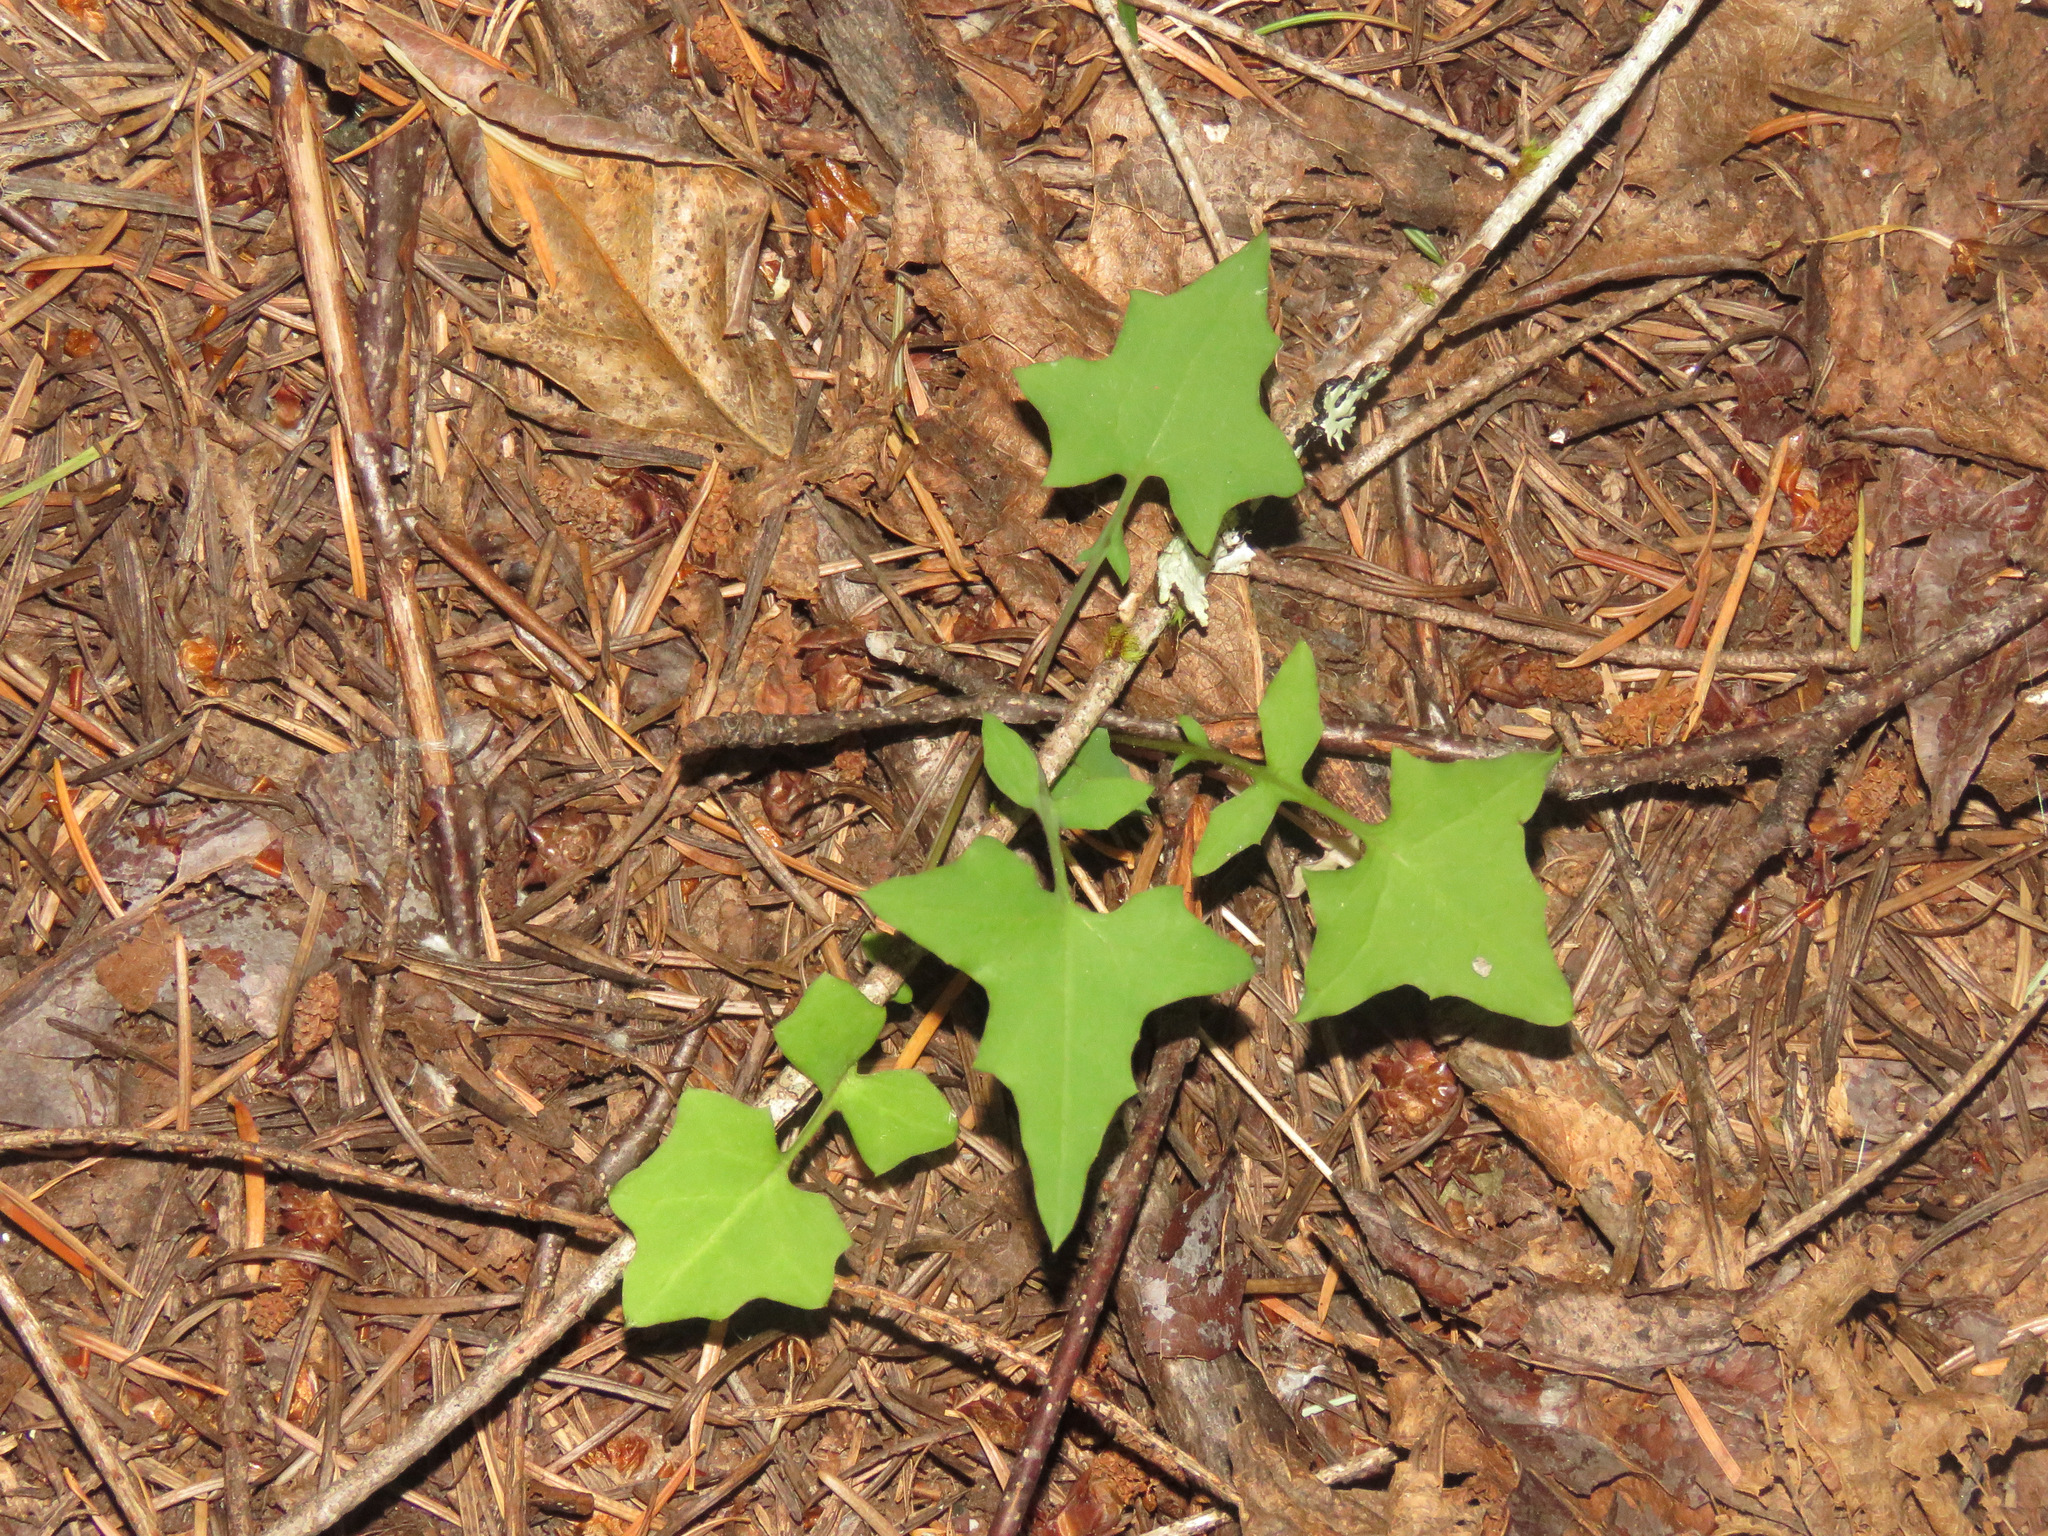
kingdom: Plantae
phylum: Tracheophyta
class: Magnoliopsida
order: Asterales
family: Asteraceae
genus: Mycelis
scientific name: Mycelis muralis
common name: Wall lettuce
